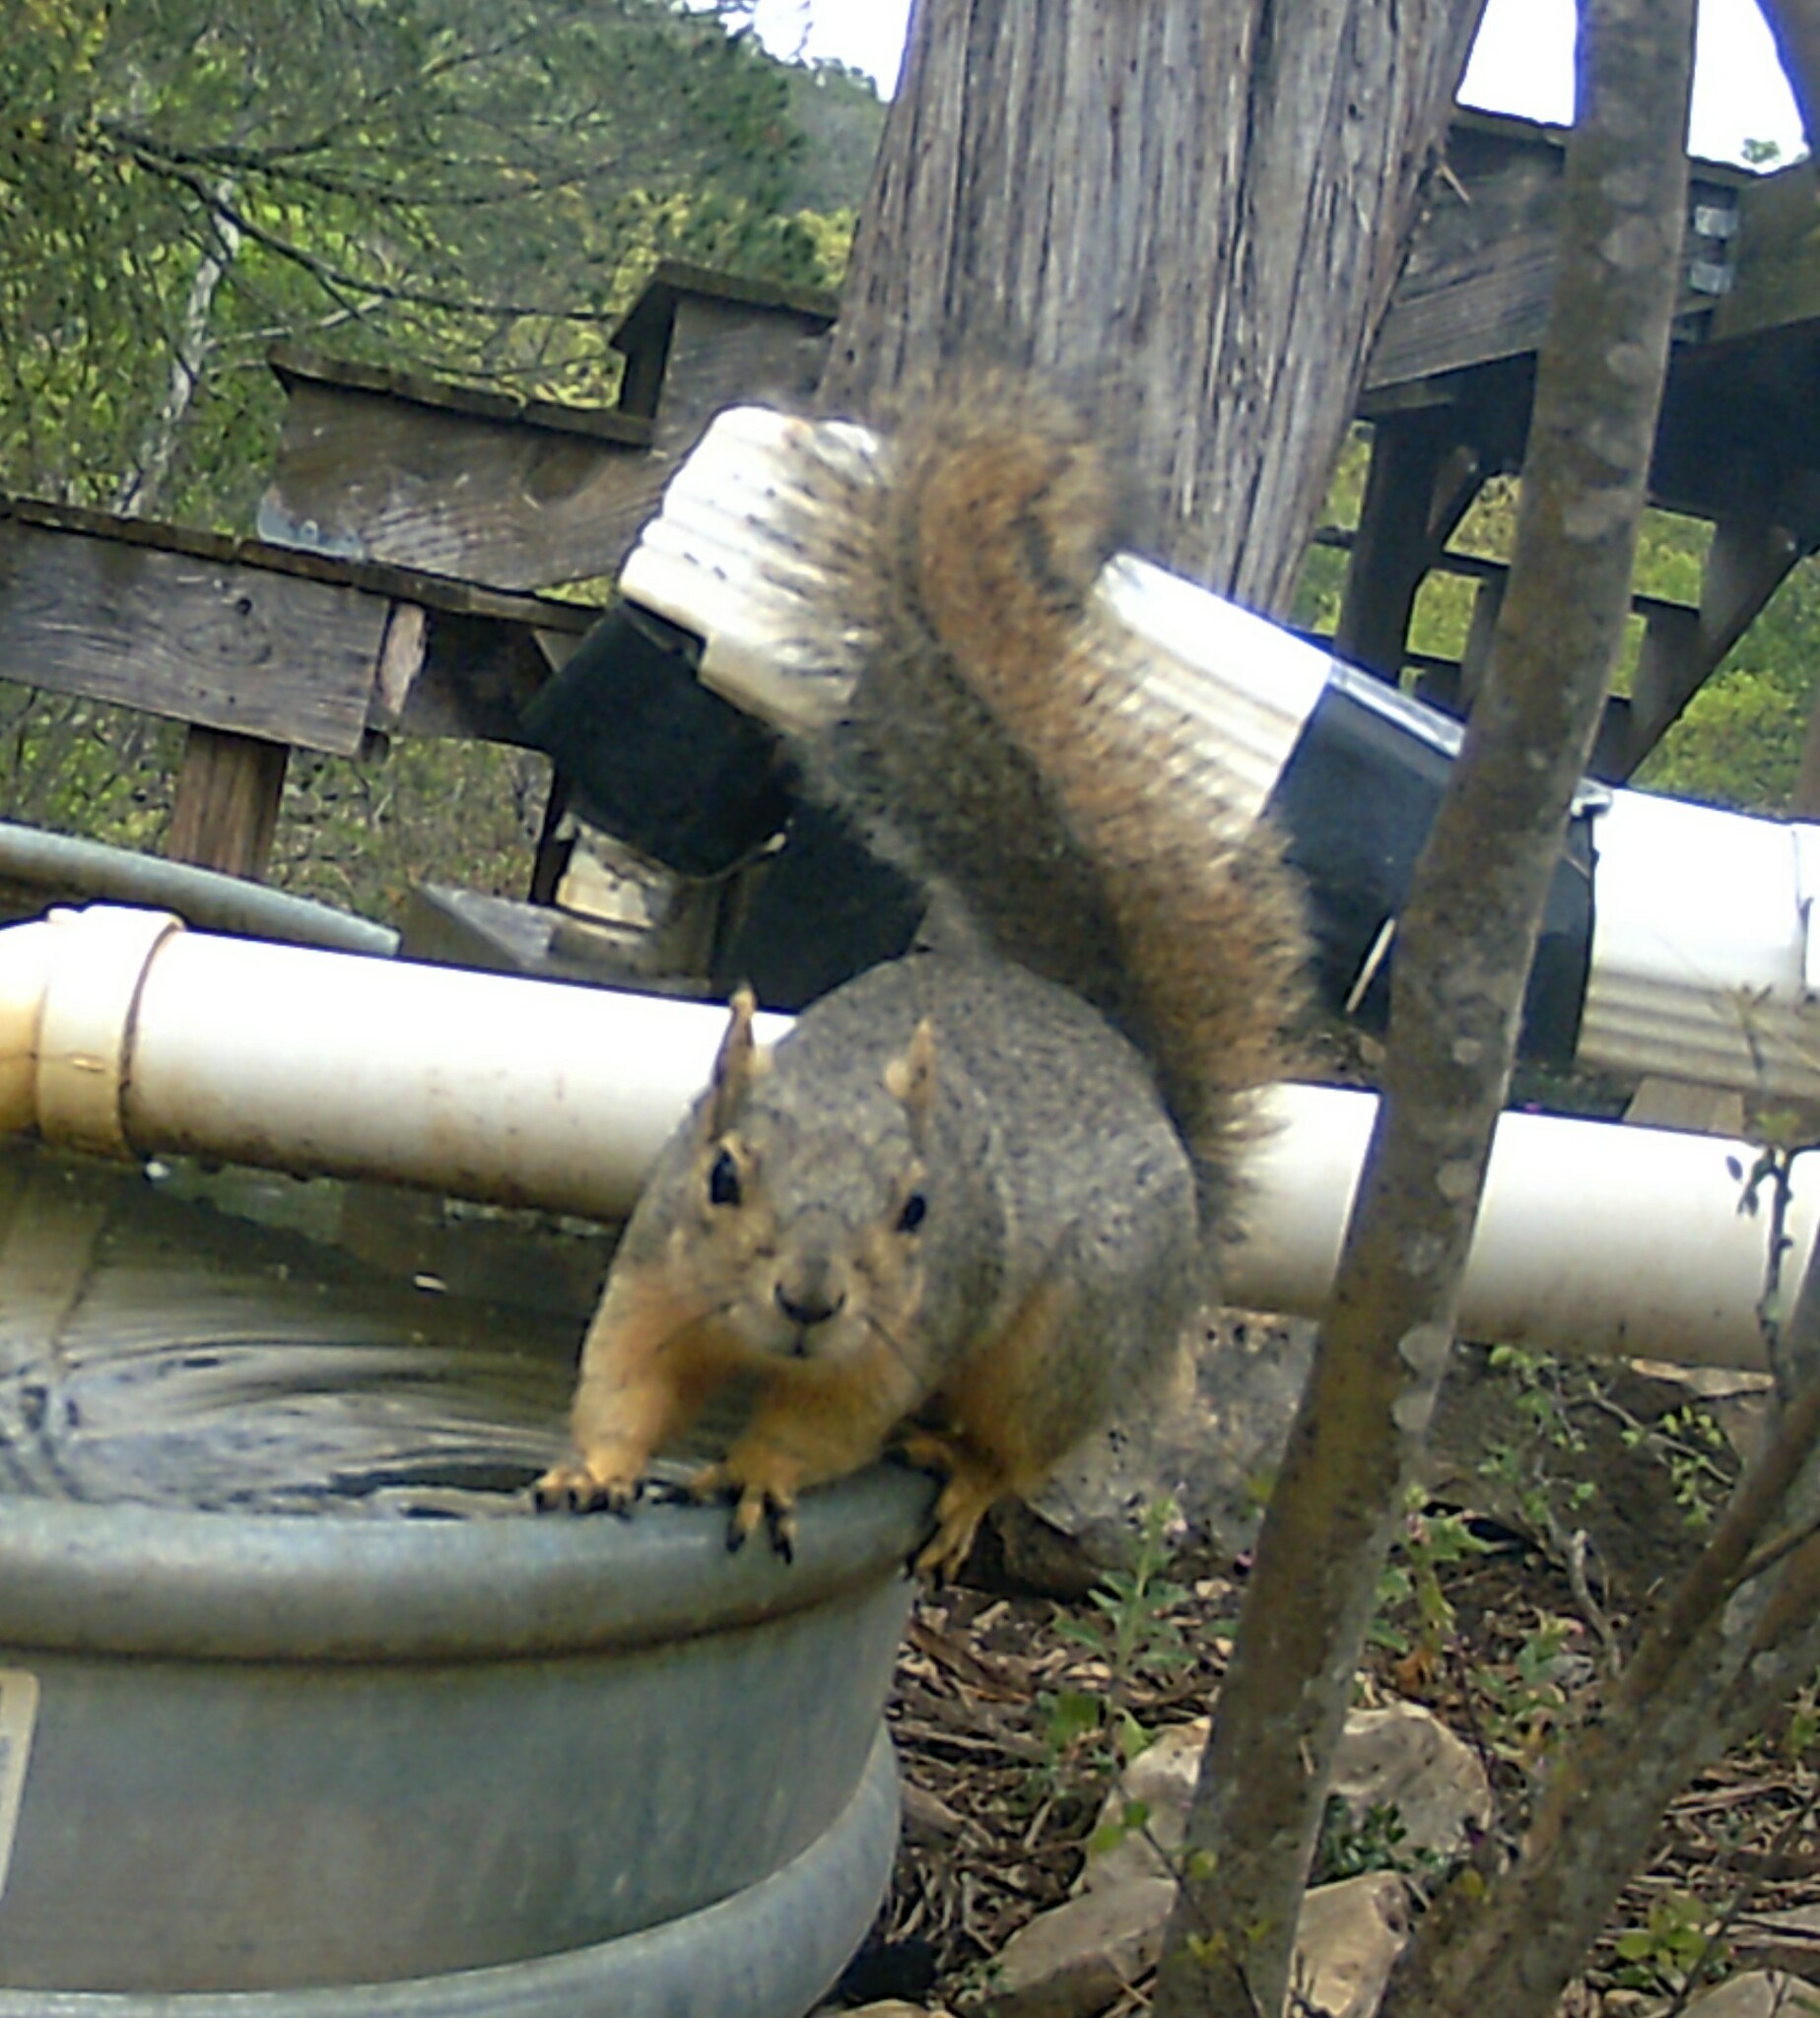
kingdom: Animalia
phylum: Chordata
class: Mammalia
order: Rodentia
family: Sciuridae
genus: Sciurus
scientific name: Sciurus niger
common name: Fox squirrel
